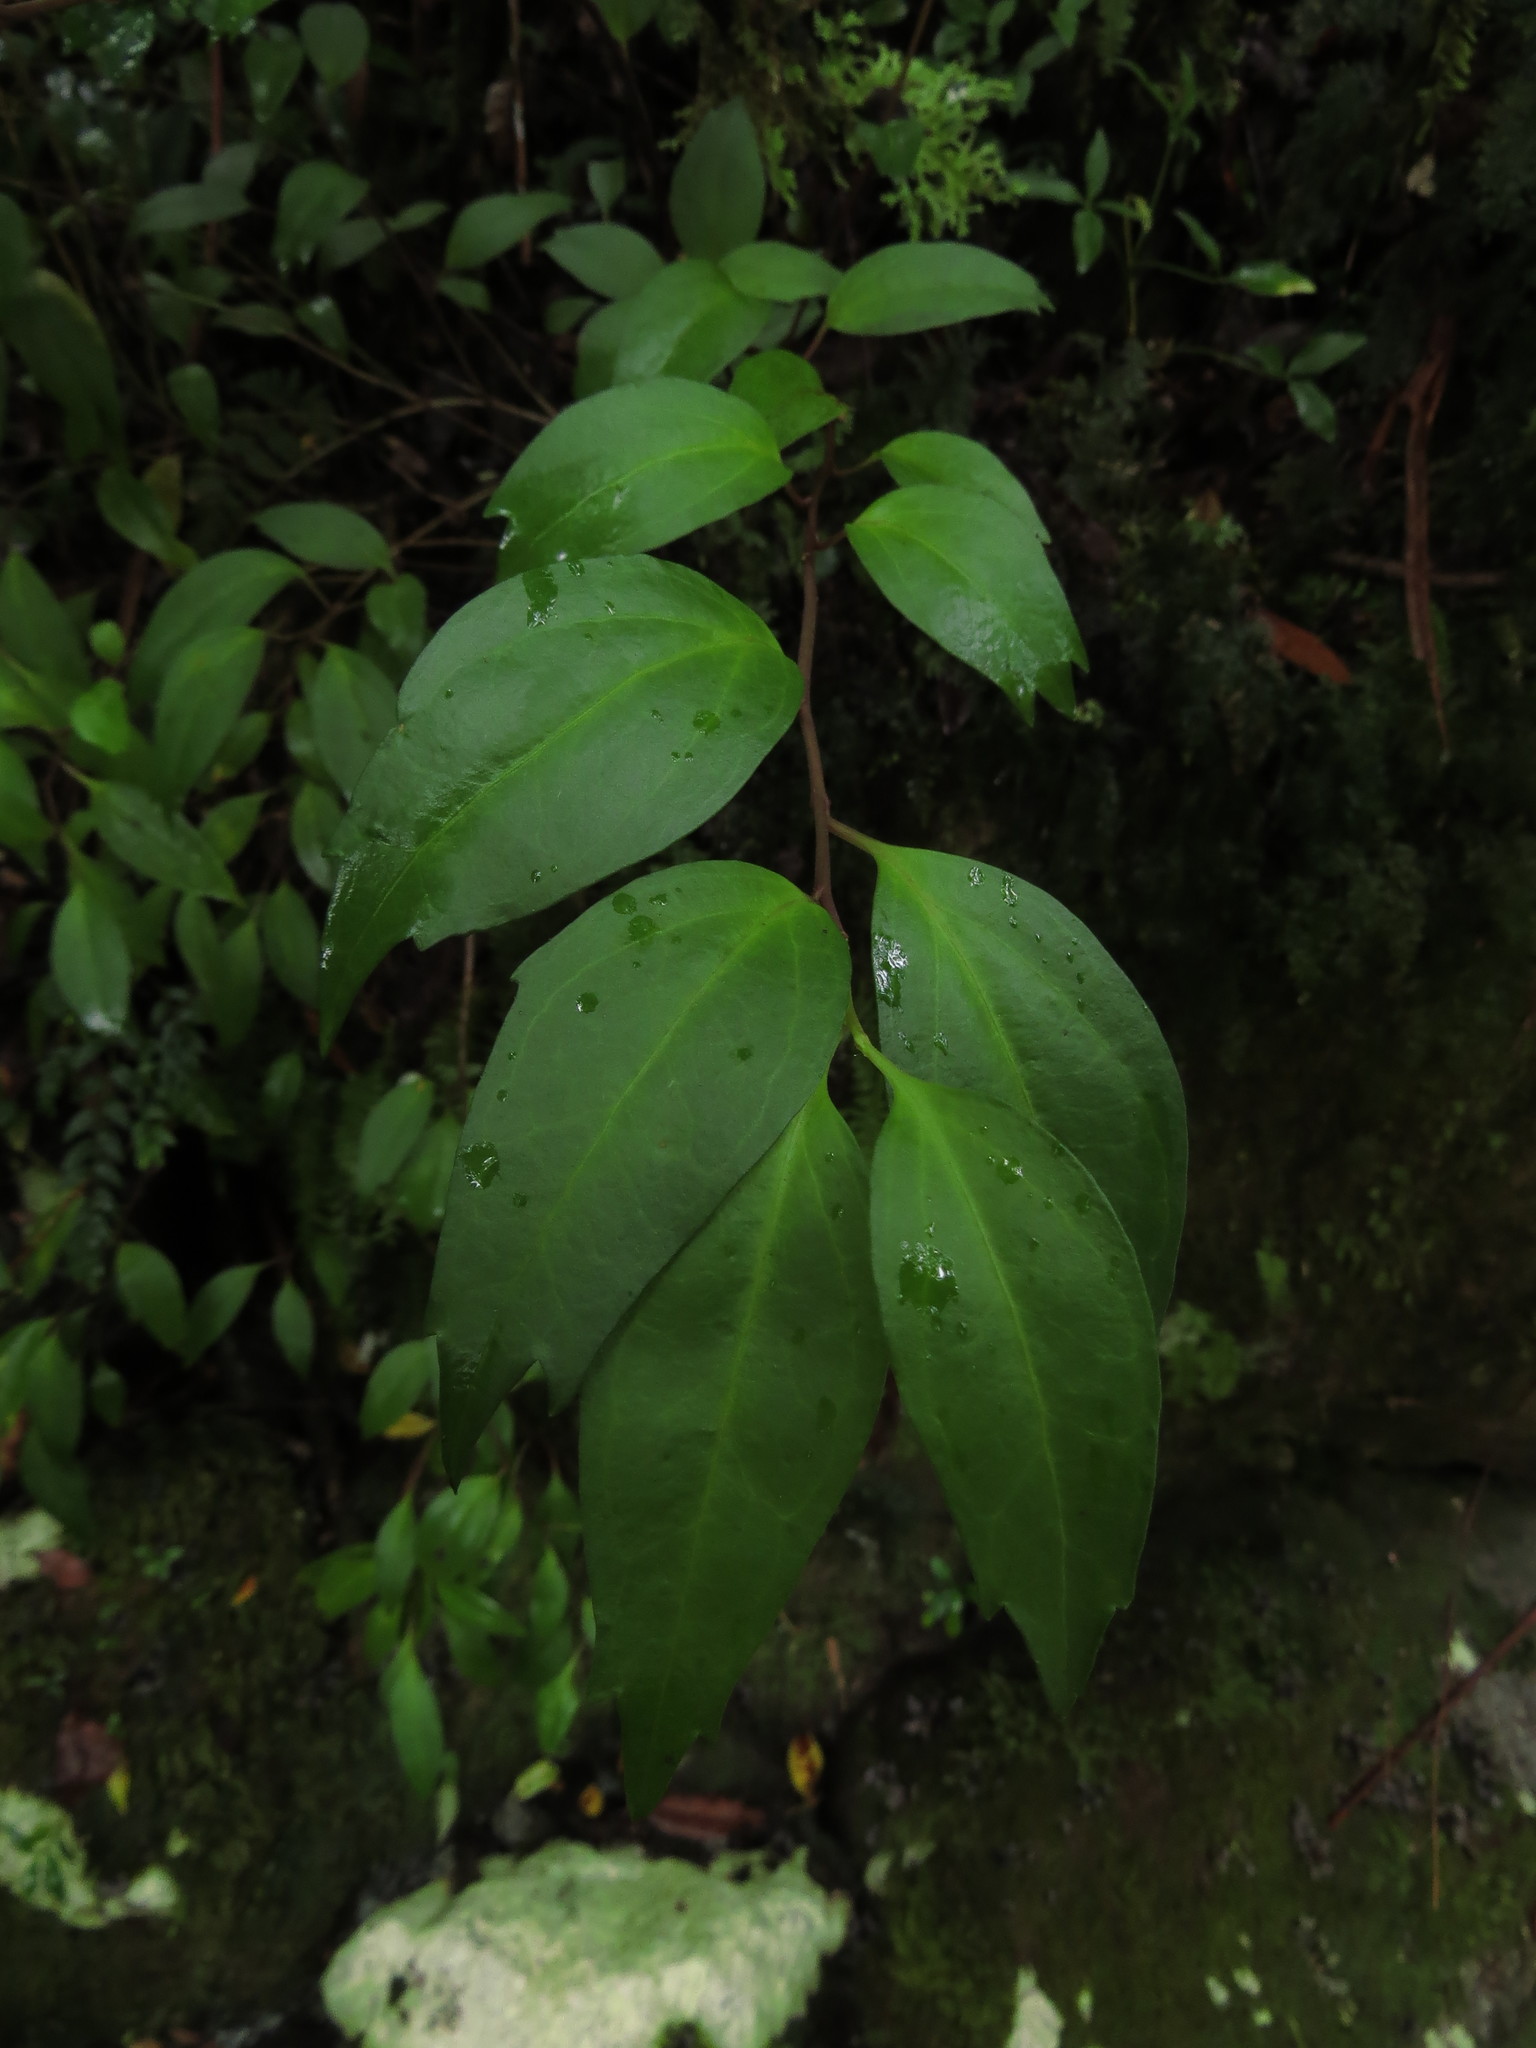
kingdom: Plantae
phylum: Tracheophyta
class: Magnoliopsida
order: Apiales
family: Griseliniaceae
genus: Griselinia
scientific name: Griselinia racemosa
